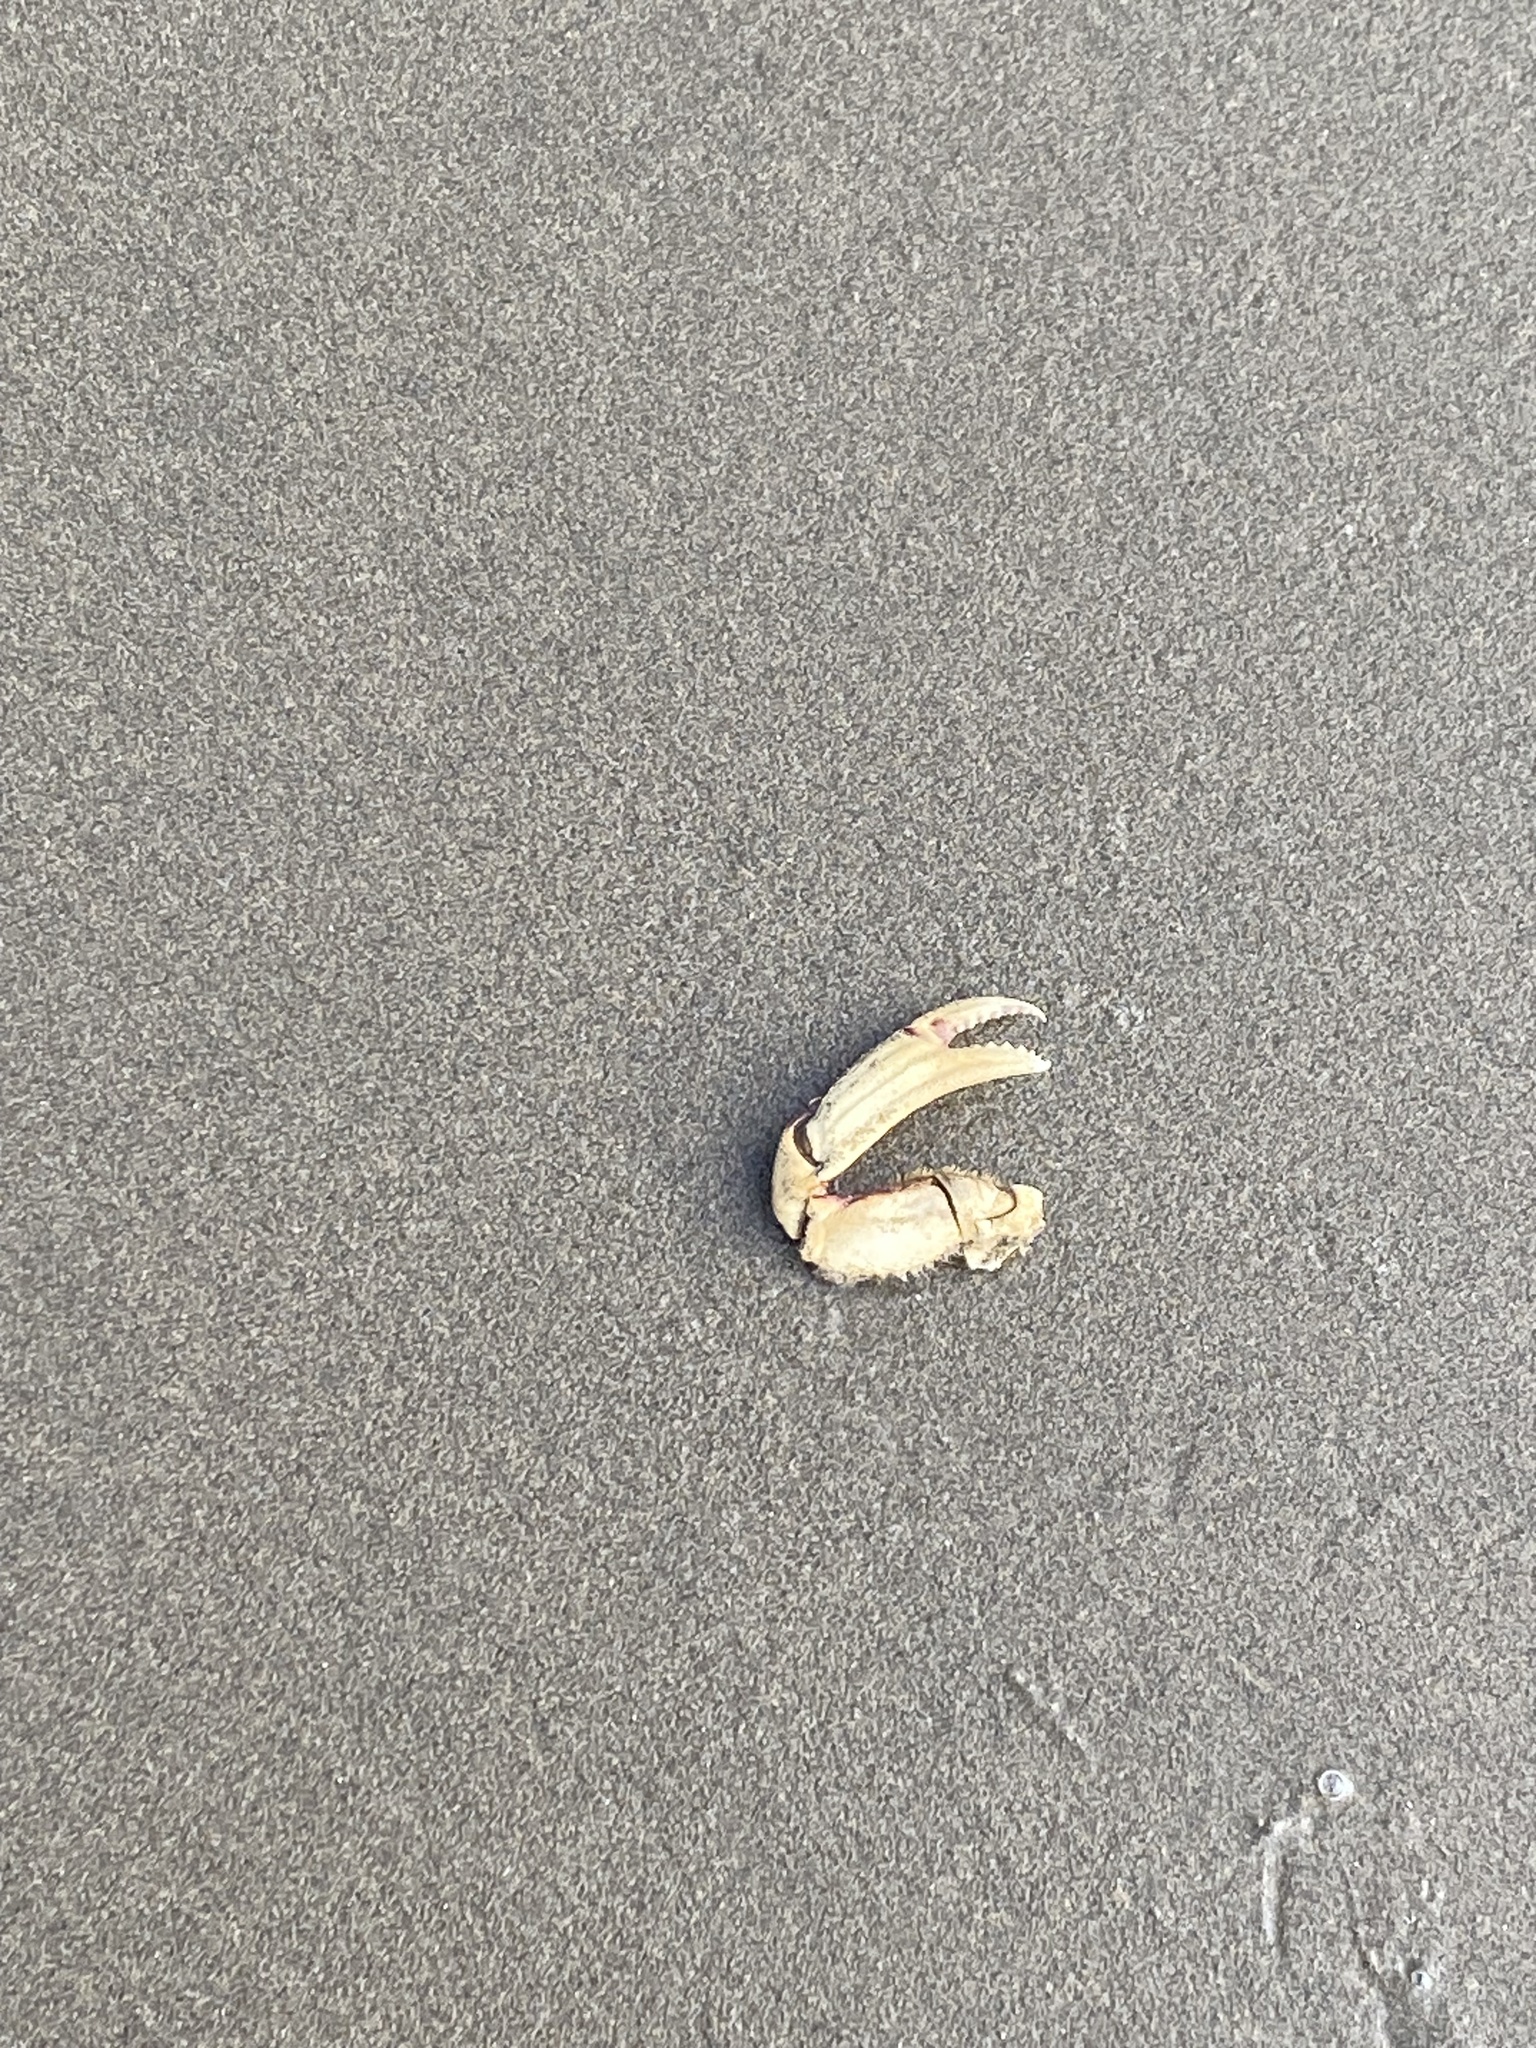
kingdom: Animalia
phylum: Arthropoda
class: Malacostraca
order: Decapoda
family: Cancridae
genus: Metacarcinus
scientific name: Metacarcinus magister
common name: Californian crab
